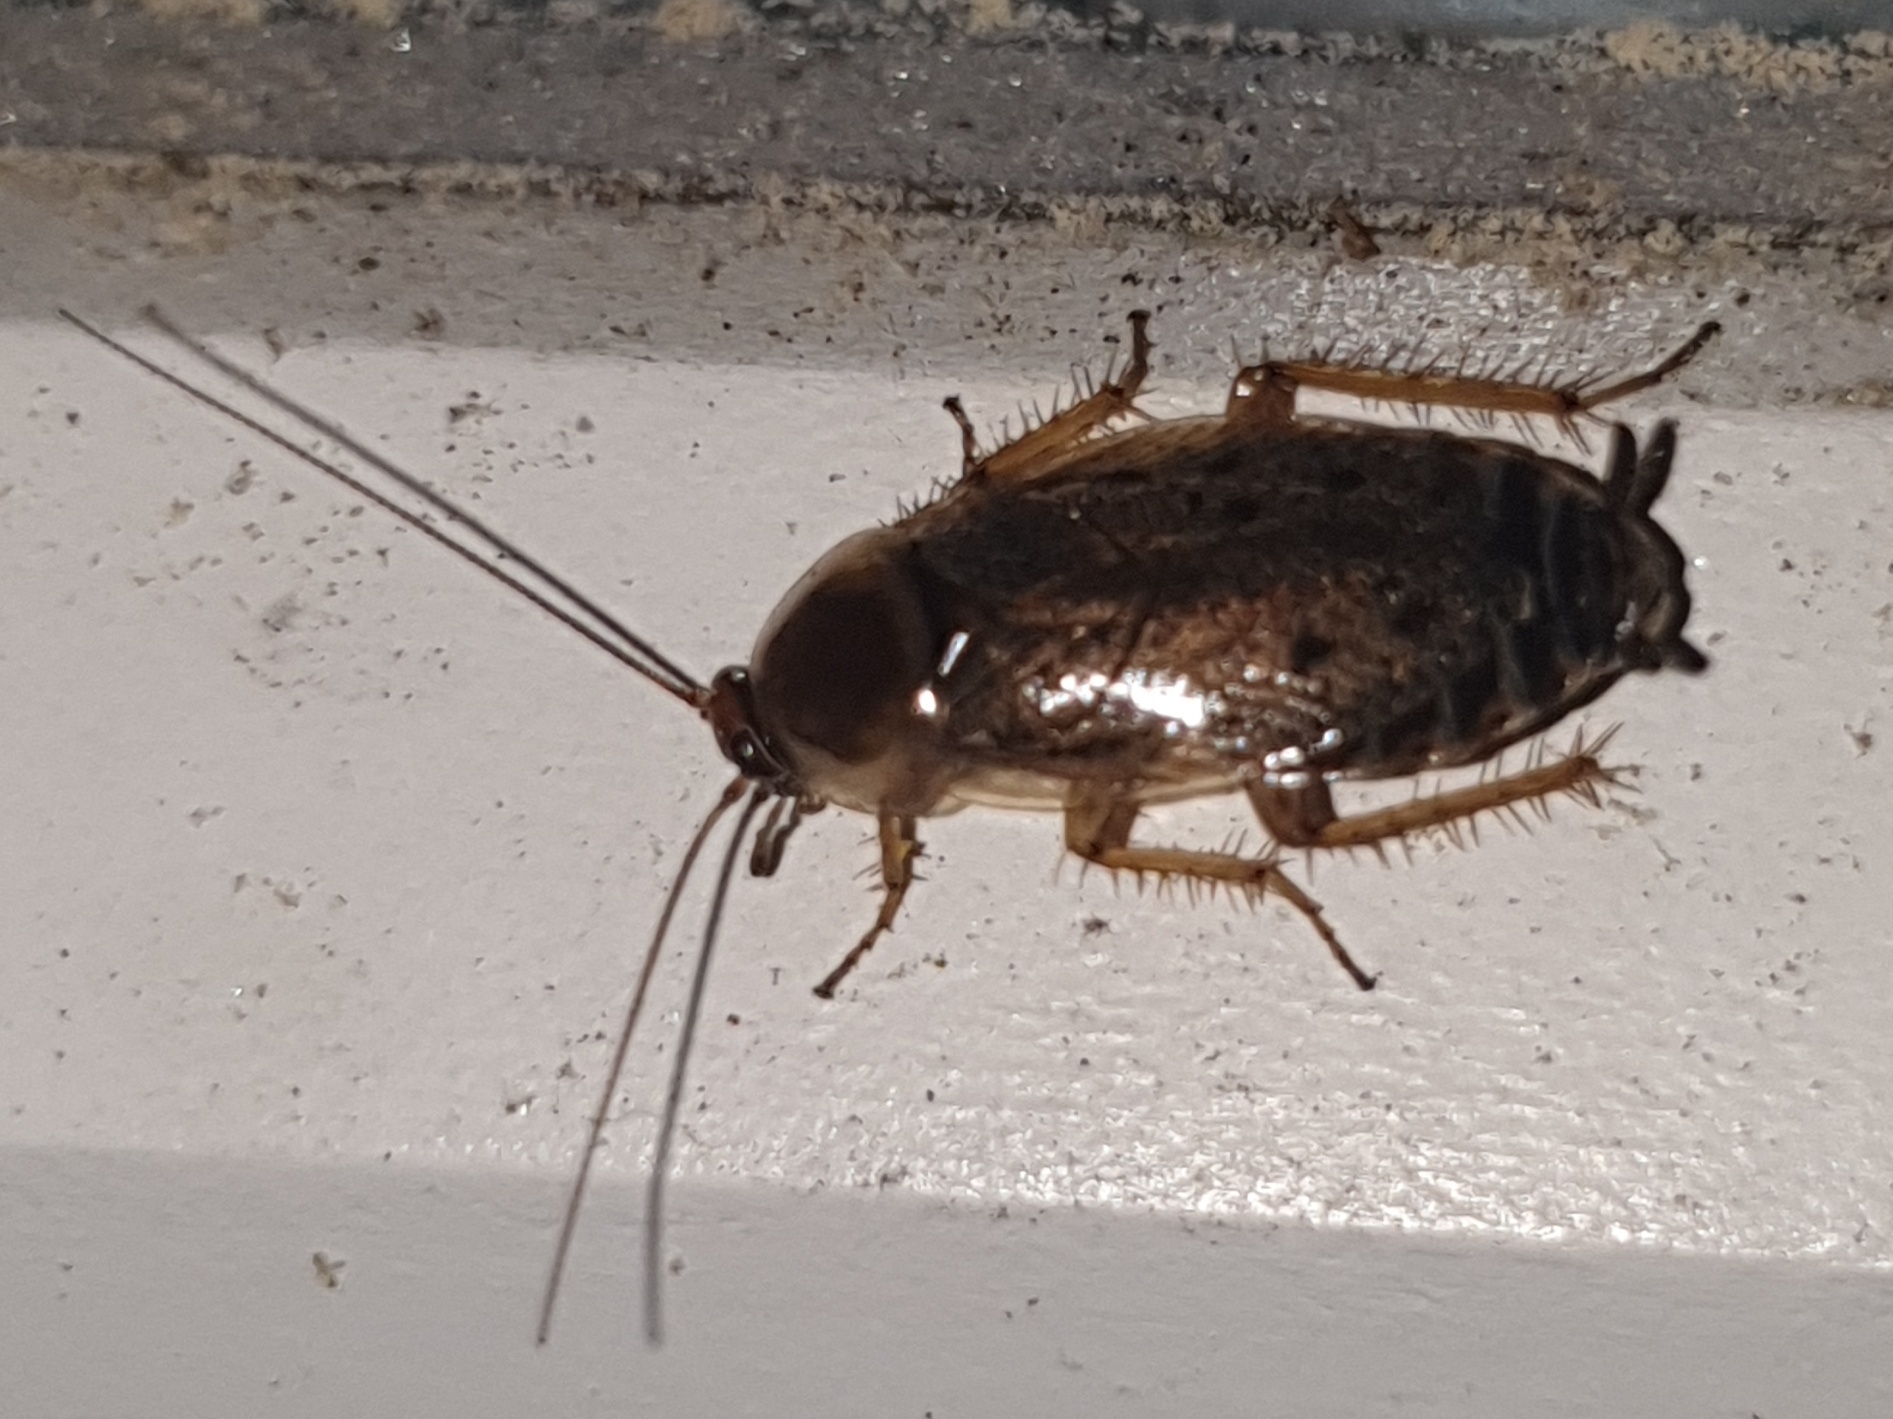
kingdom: Animalia
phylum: Arthropoda
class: Insecta
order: Blattodea
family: Ectobiidae
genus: Ectobius
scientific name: Ectobius lapponicus
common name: Dusky cockroach
